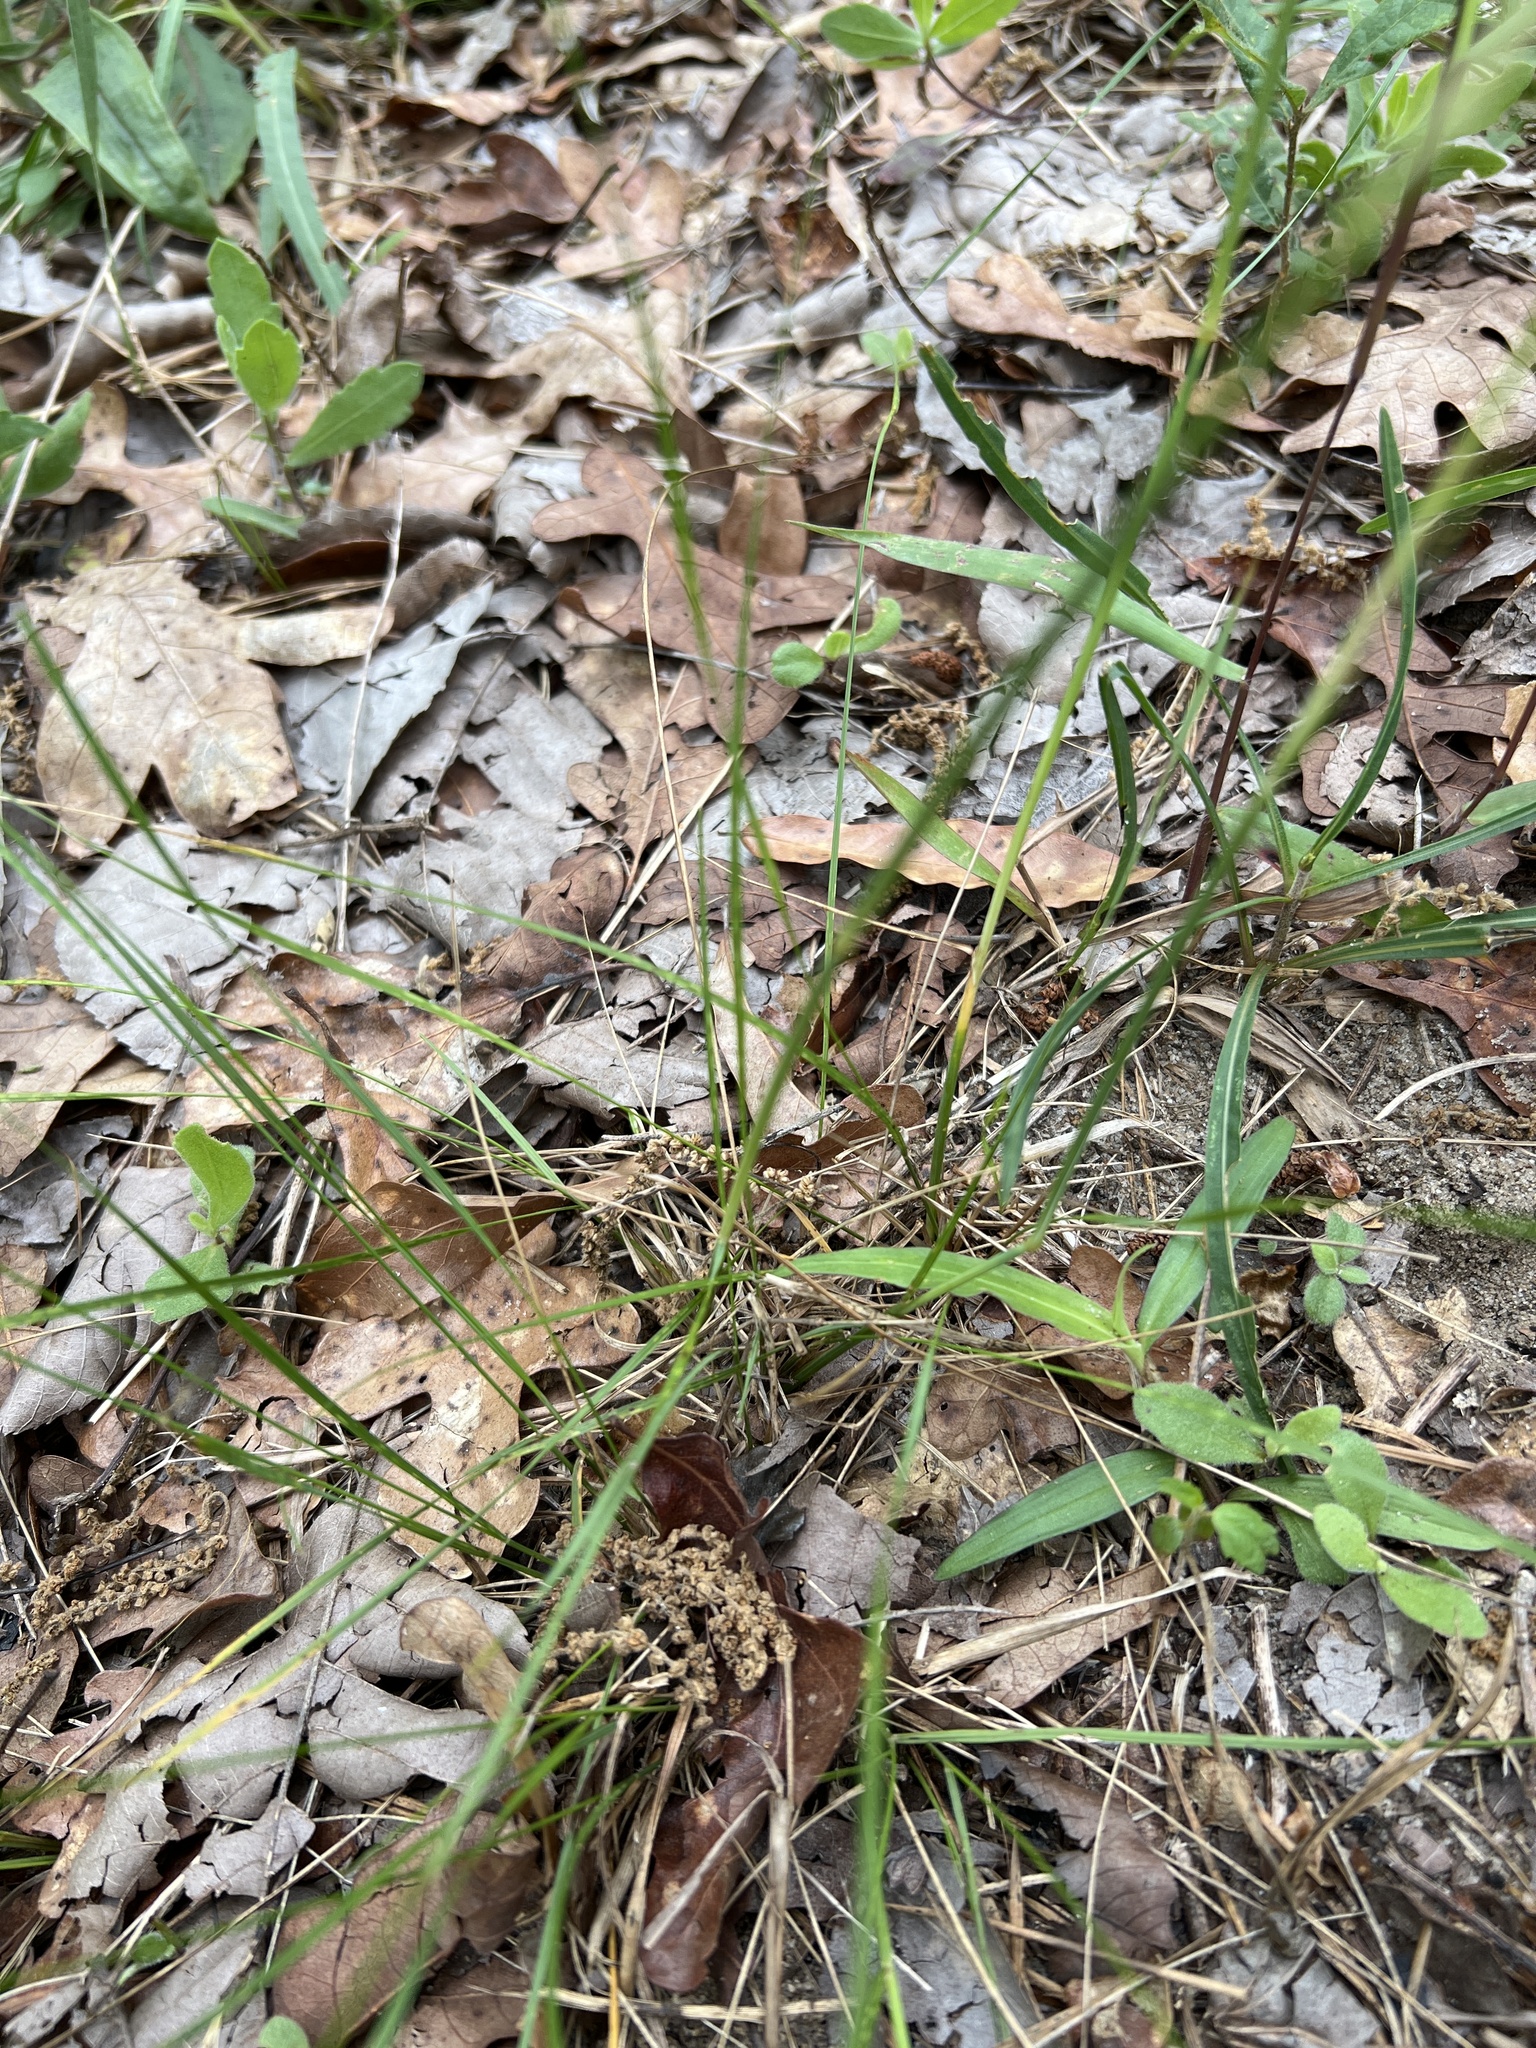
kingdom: Plantae
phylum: Tracheophyta
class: Liliopsida
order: Poales
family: Poaceae
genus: Piptochaetium
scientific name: Piptochaetium avenaceum
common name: Black bunchgrass
